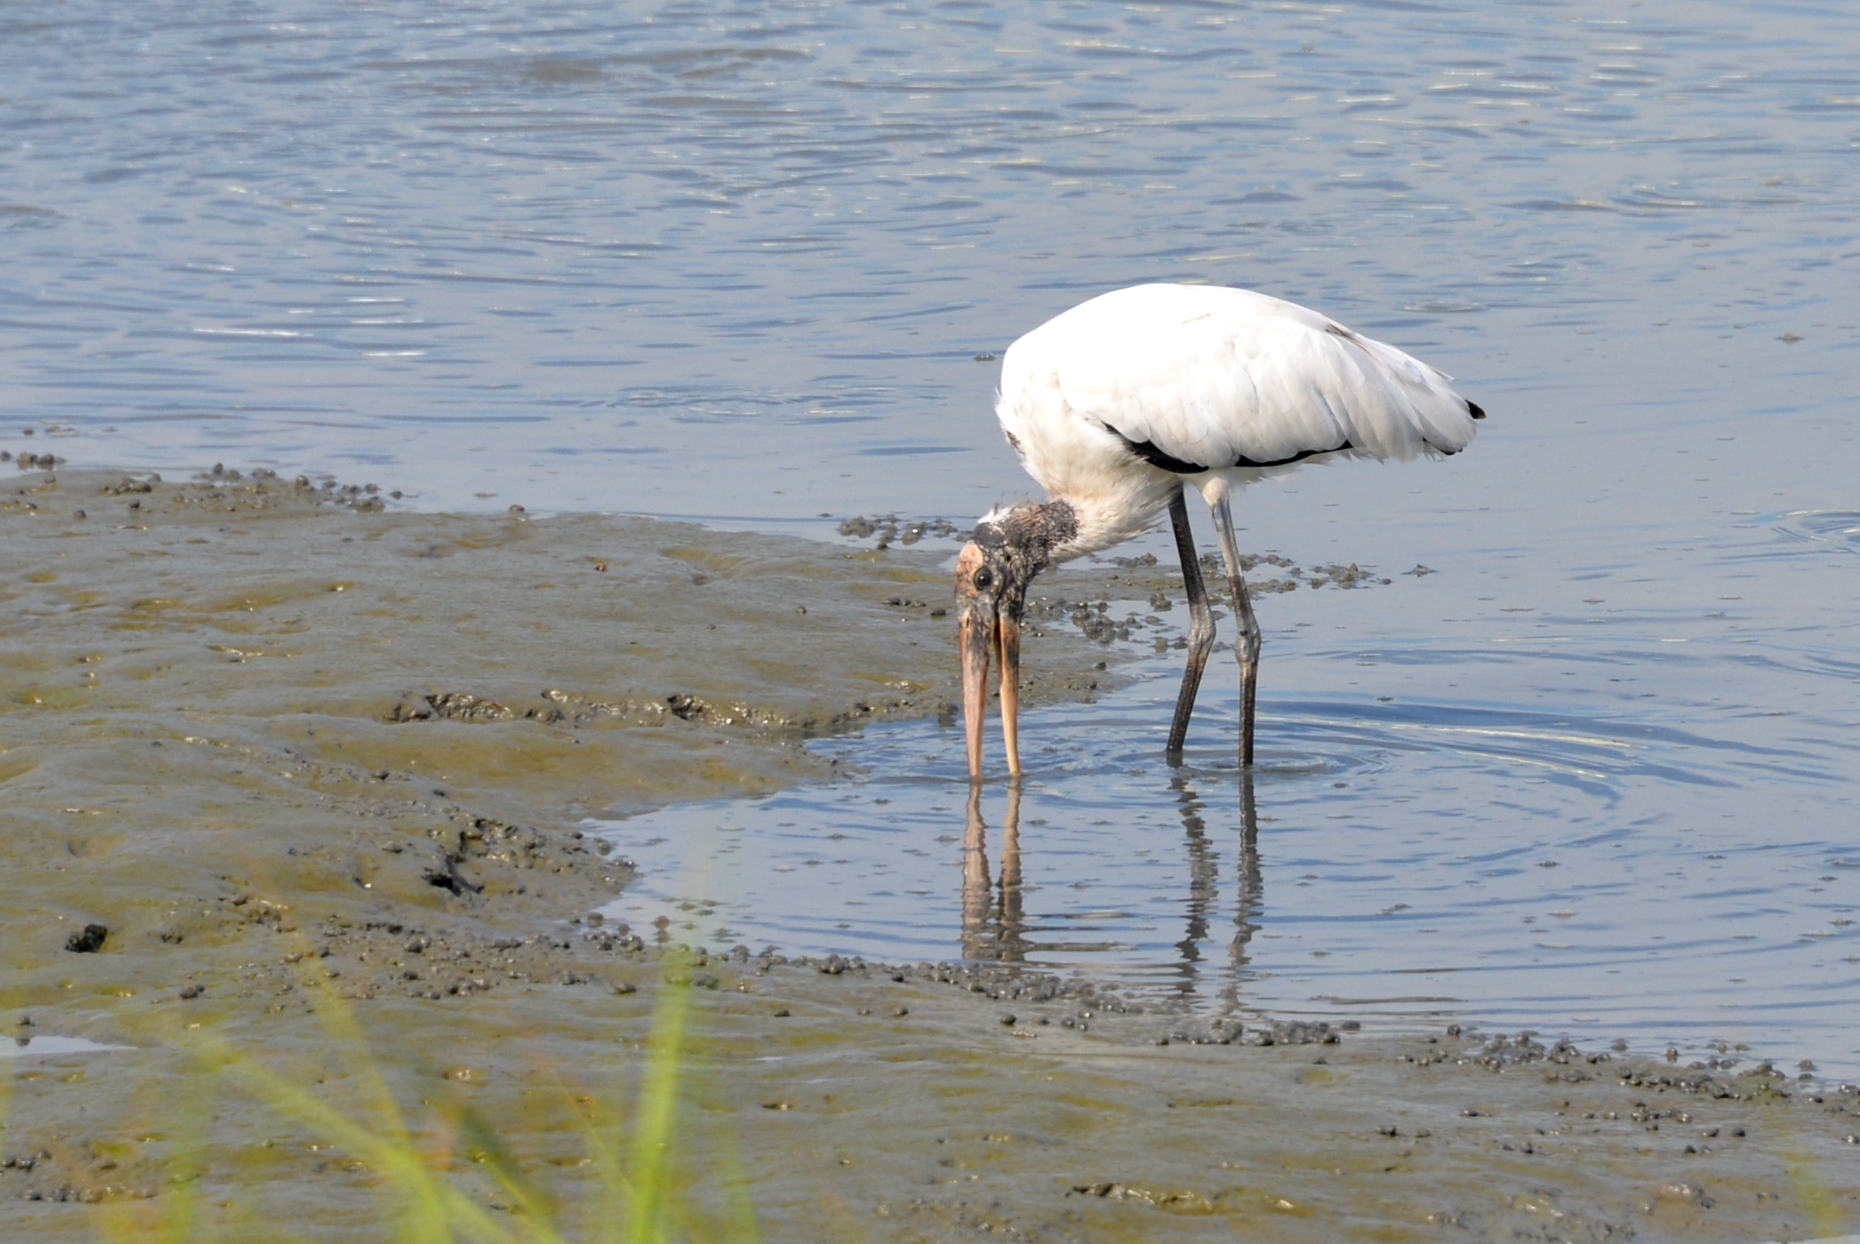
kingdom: Animalia
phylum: Chordata
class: Aves
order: Ciconiiformes
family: Ciconiidae
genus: Mycteria
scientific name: Mycteria americana
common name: Wood stork
